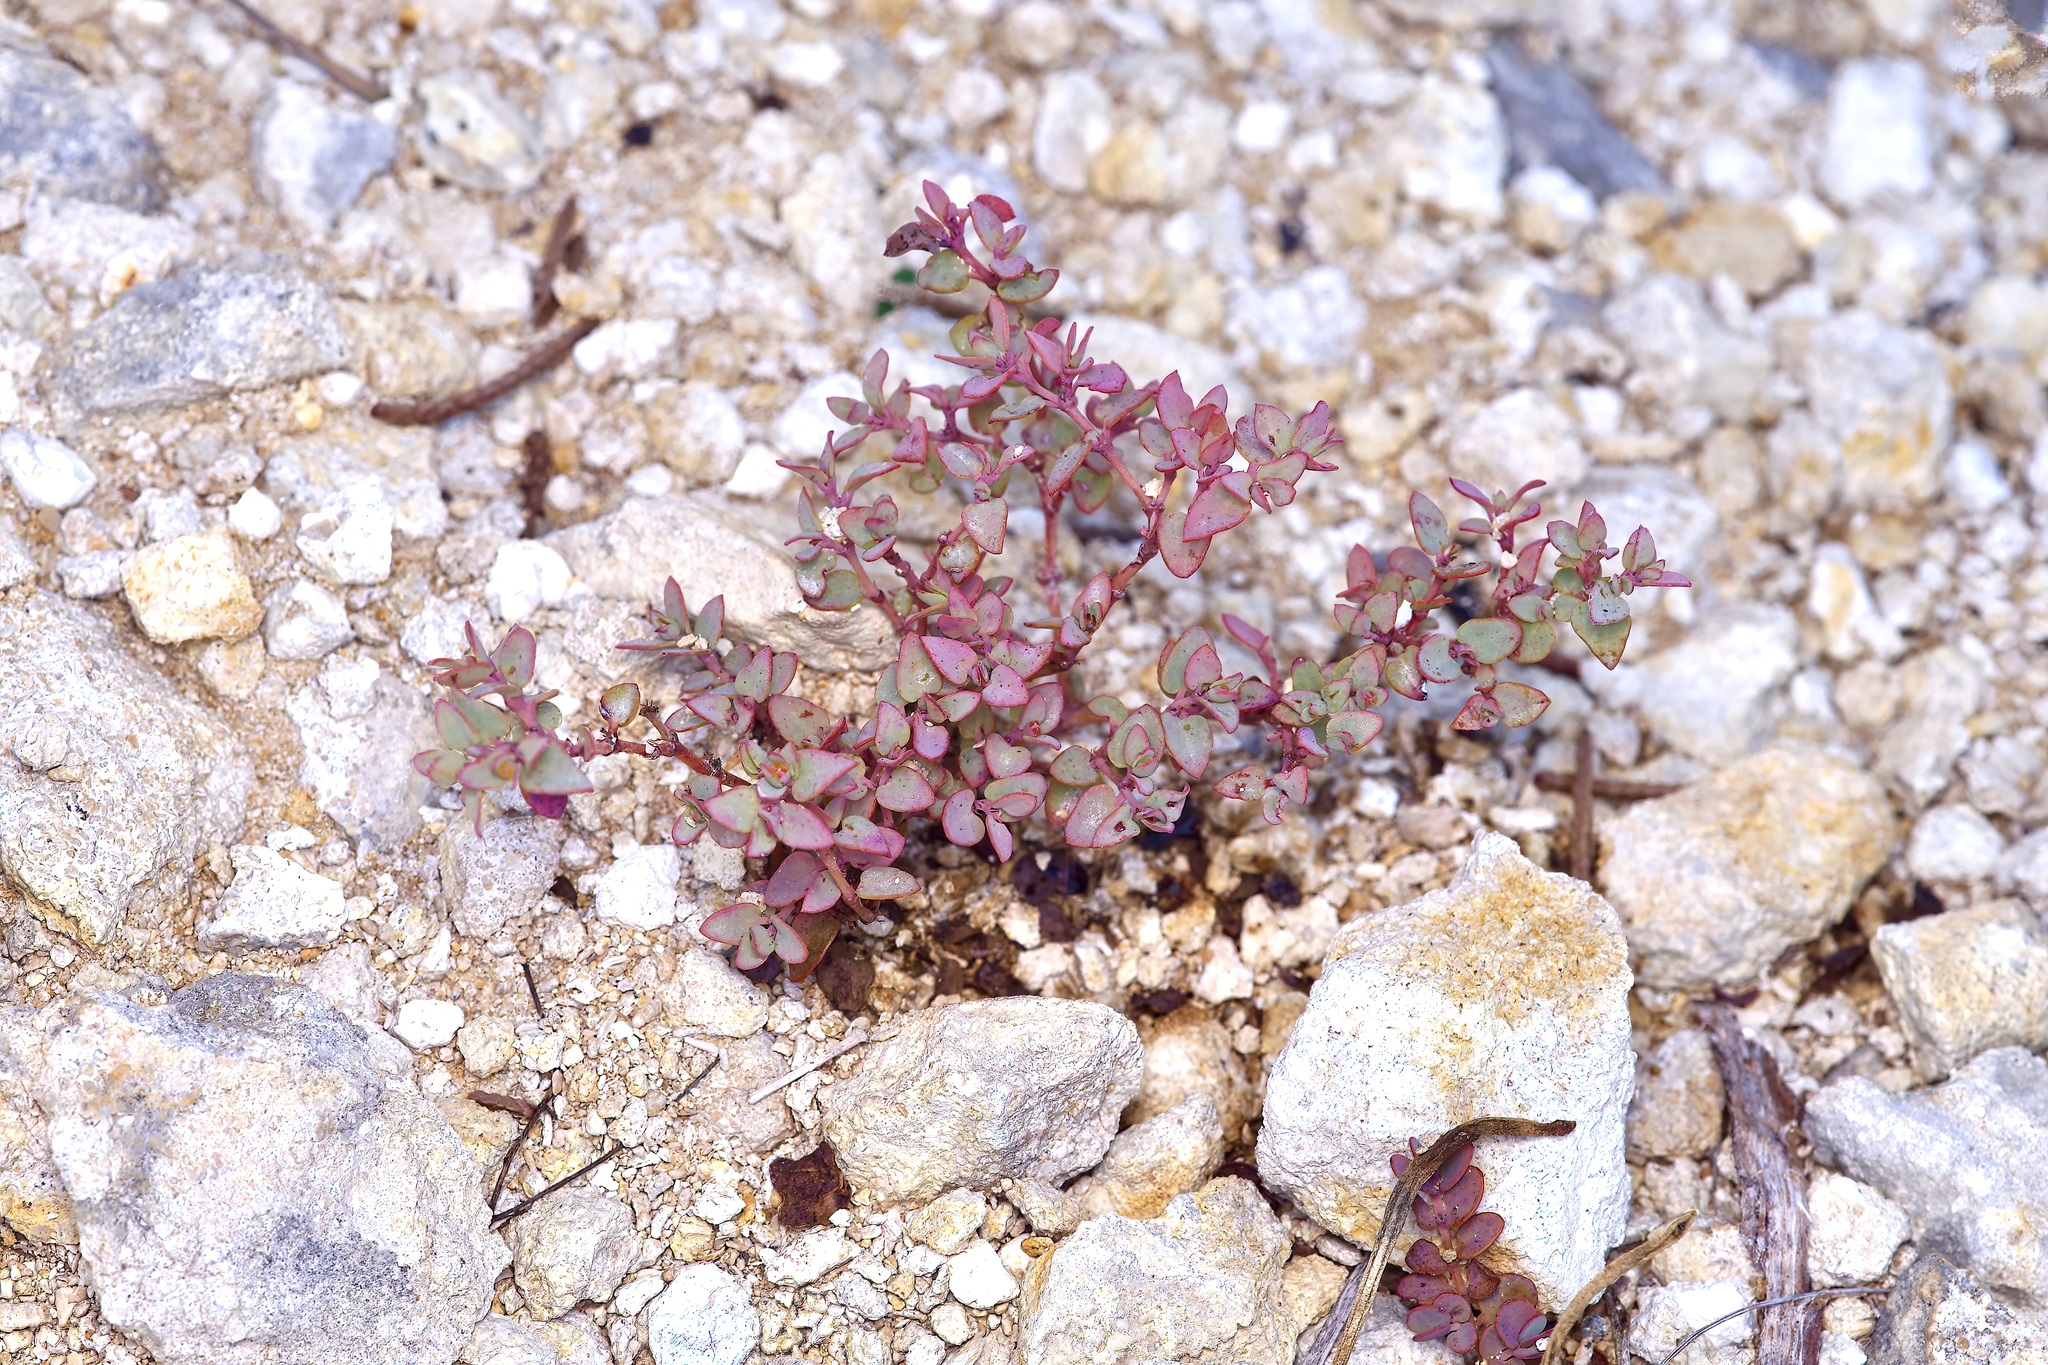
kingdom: Plantae
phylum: Tracheophyta
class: Magnoliopsida
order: Malpighiales
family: Euphorbiaceae
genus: Euphorbia
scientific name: Euphorbia fendleri
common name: Fendler's euphorbia
